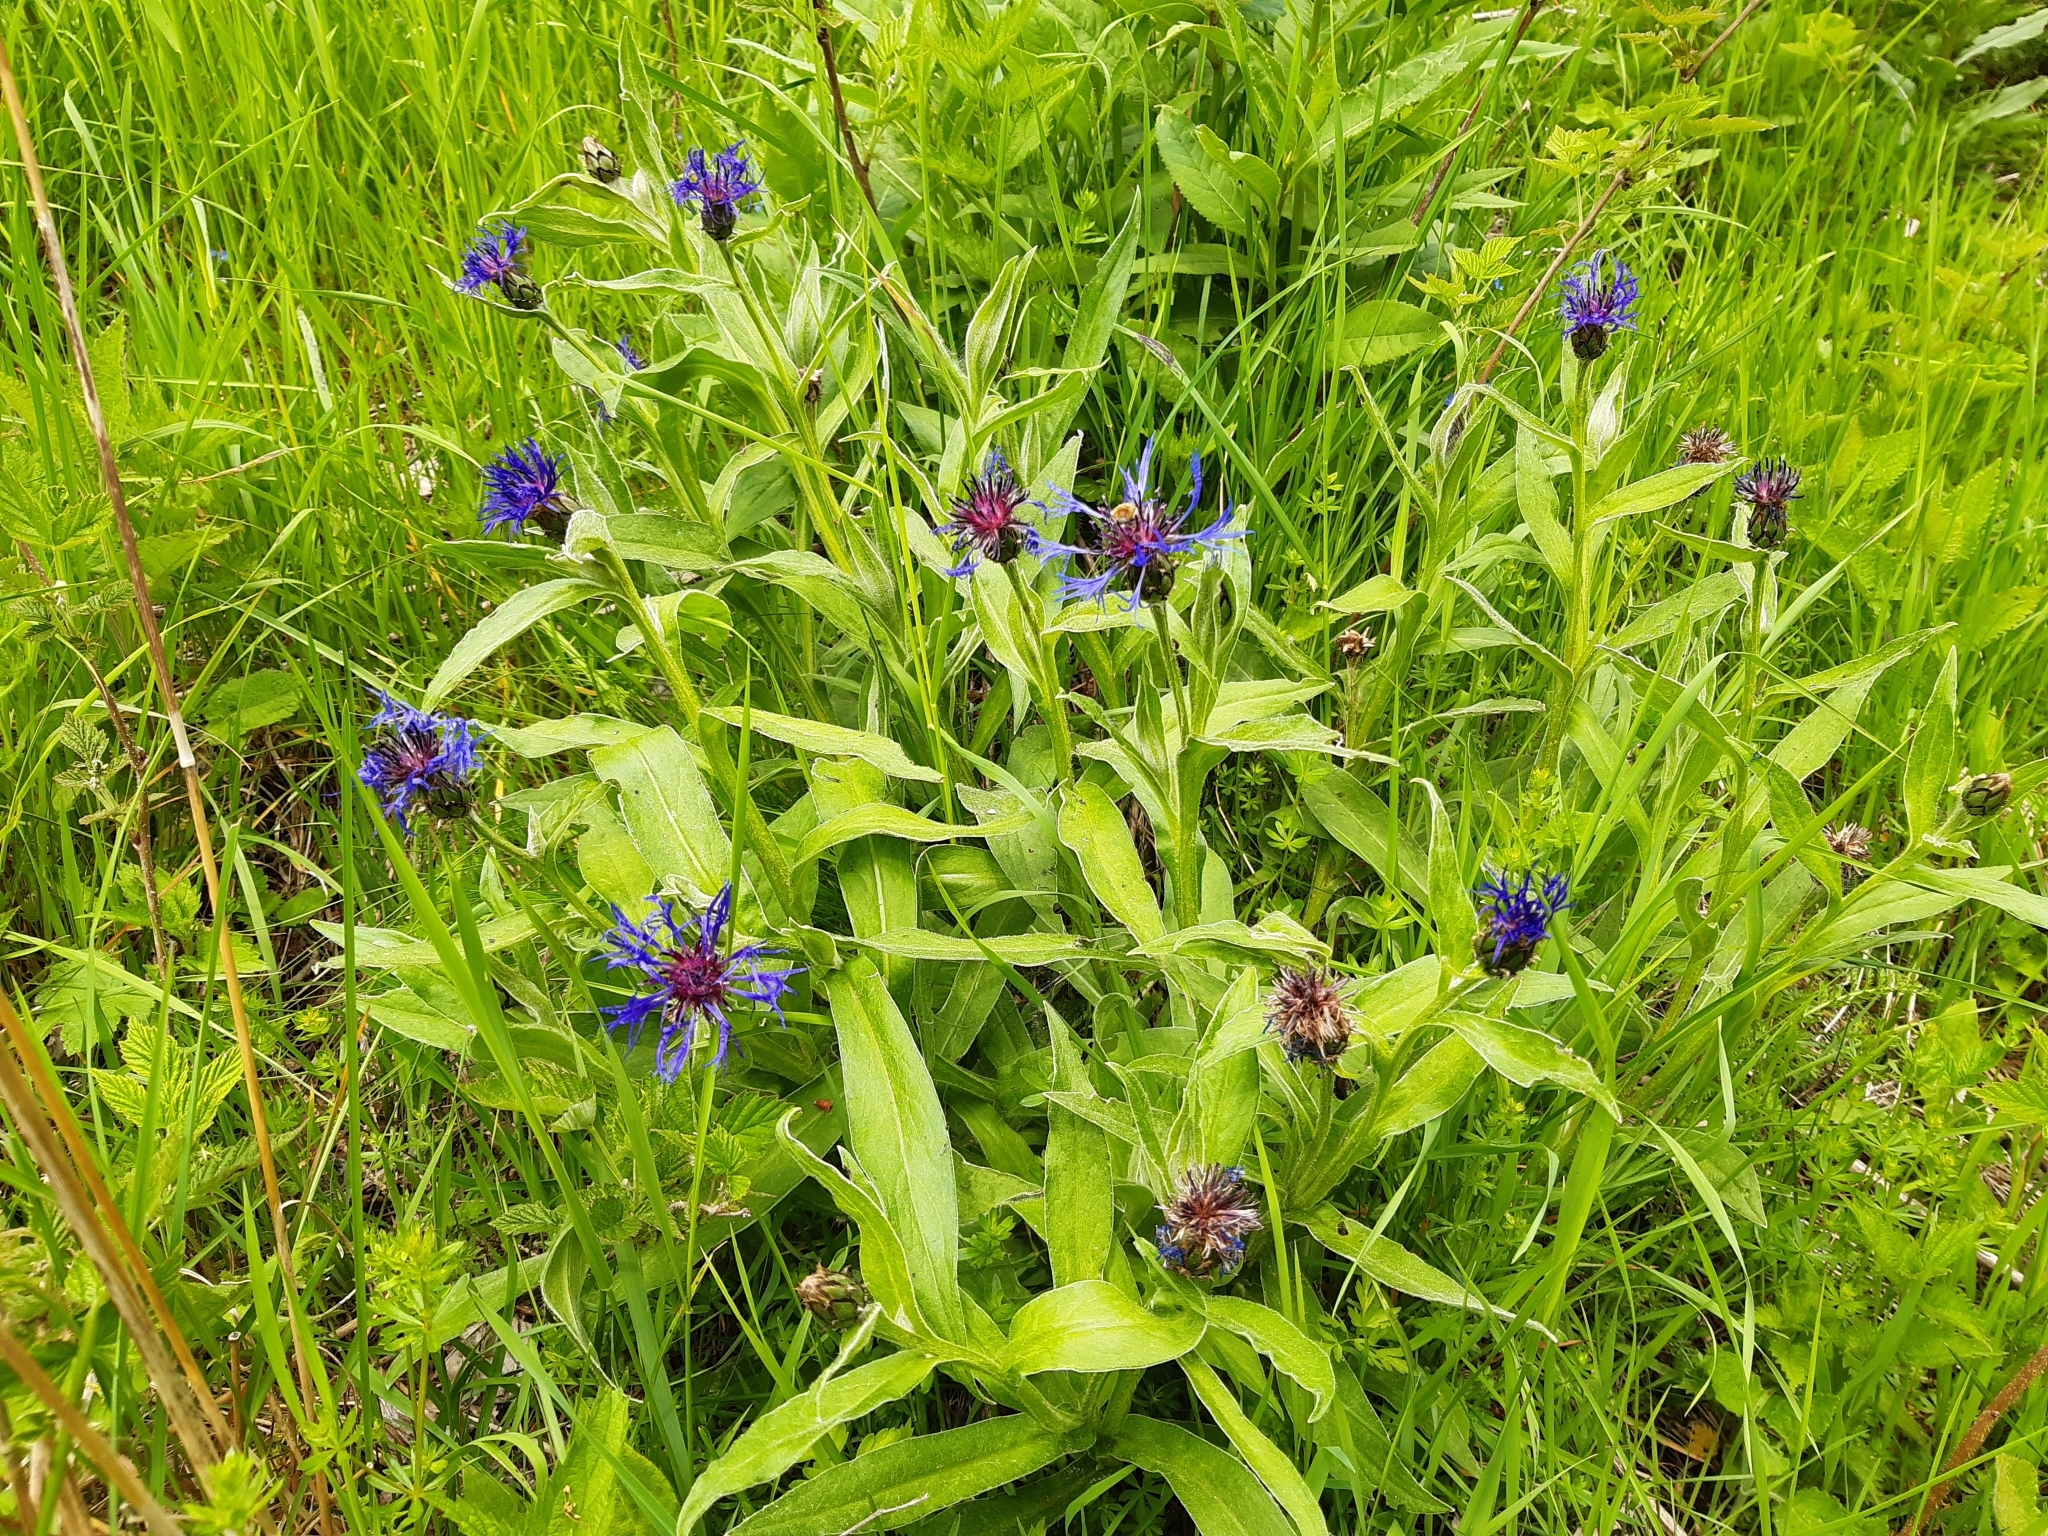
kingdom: Plantae
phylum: Tracheophyta
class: Magnoliopsida
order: Asterales
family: Asteraceae
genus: Centaurea
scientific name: Centaurea montana
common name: Perennial cornflower
